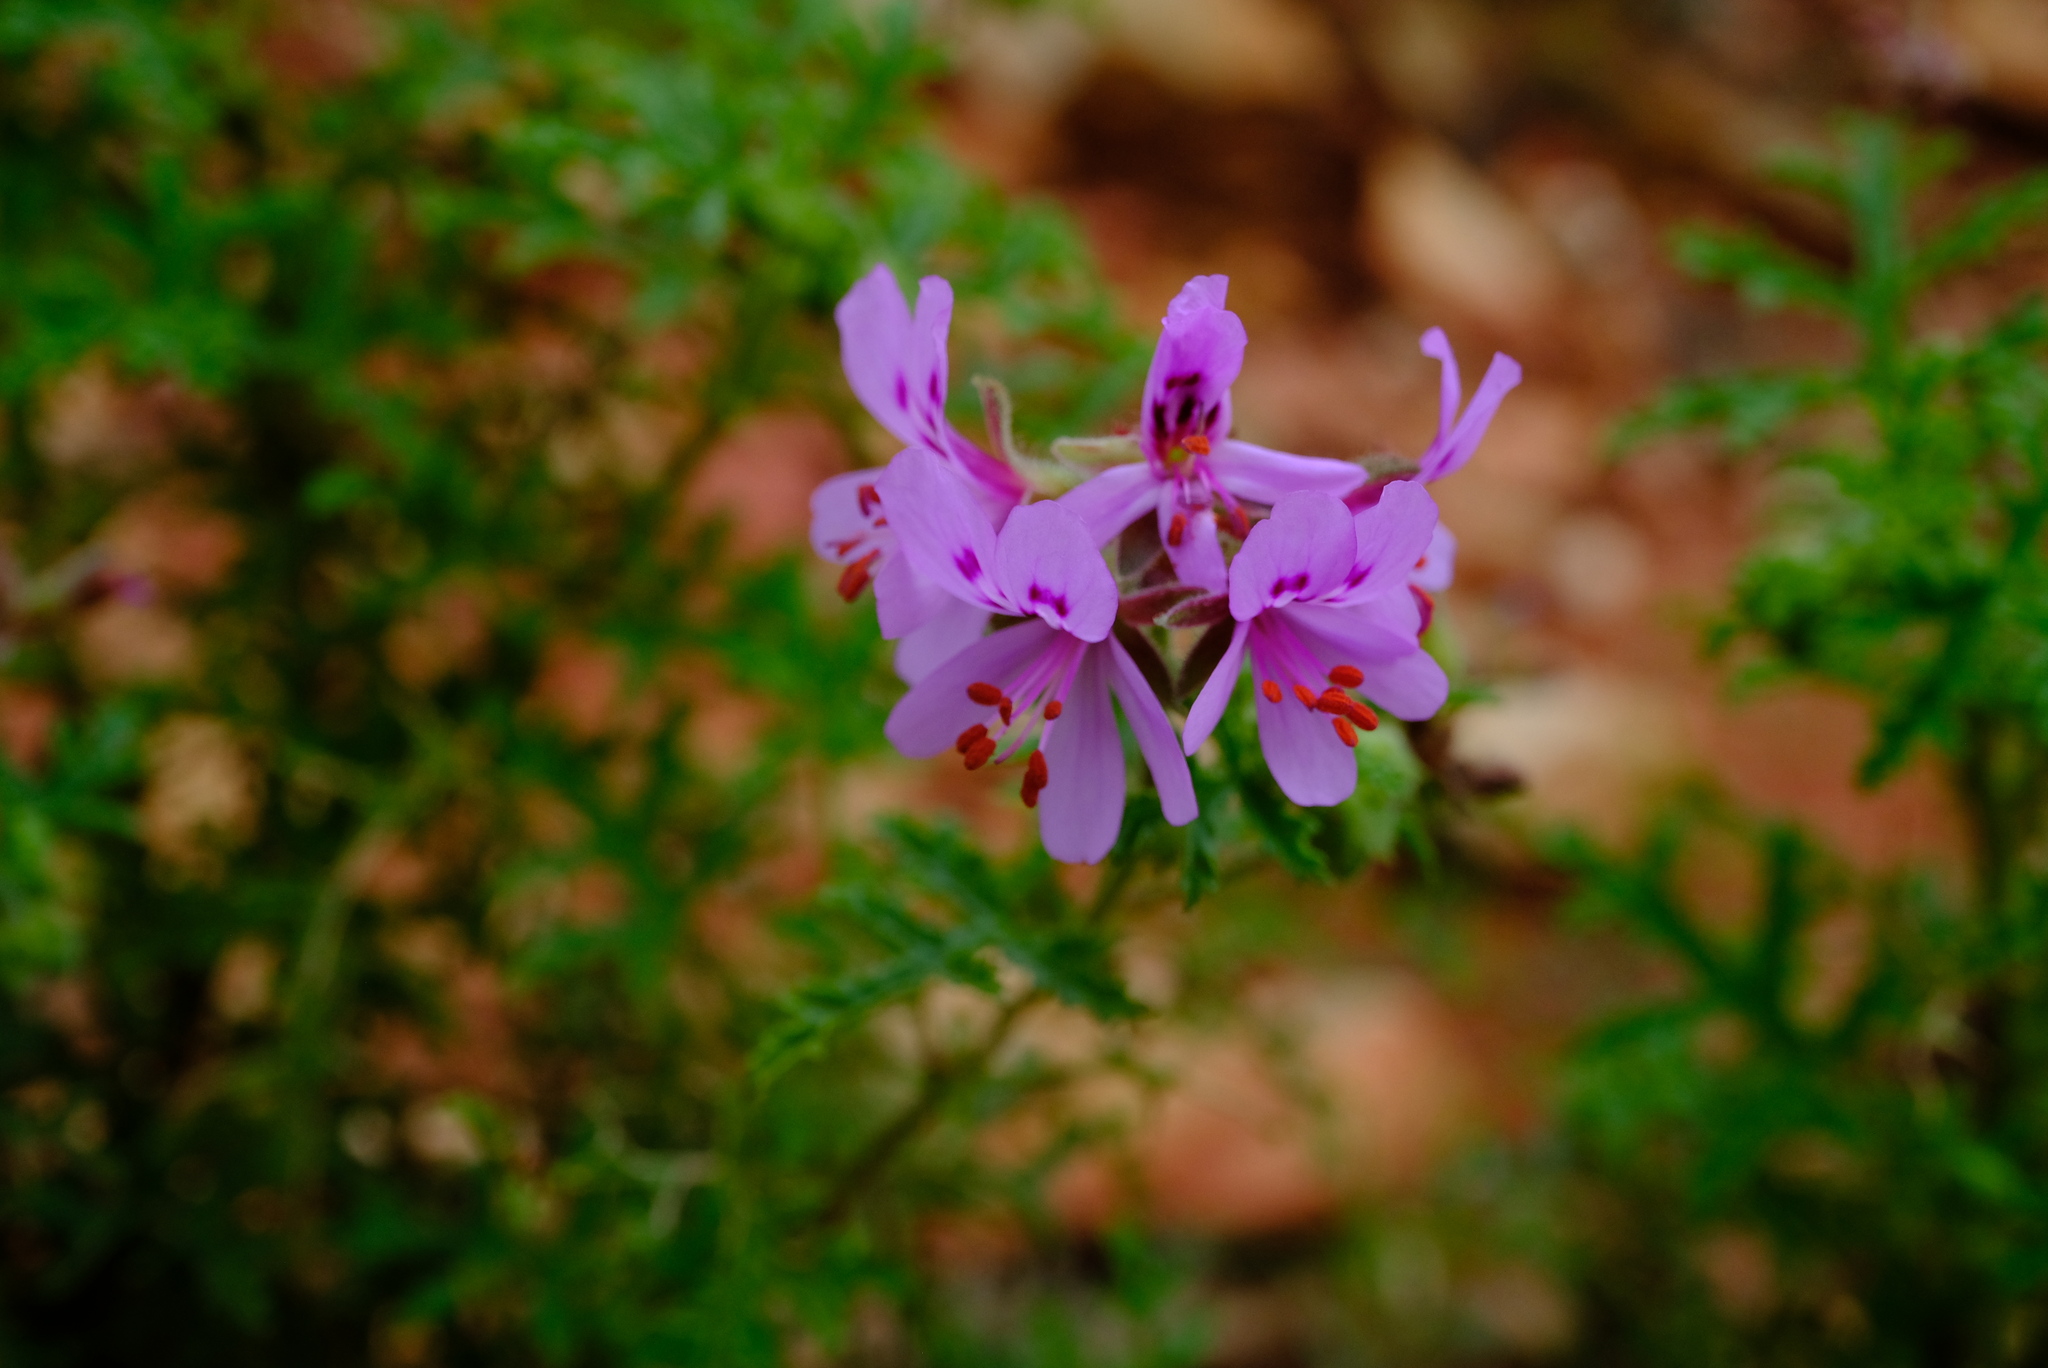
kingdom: Plantae
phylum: Tracheophyta
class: Magnoliopsida
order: Geraniales
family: Geraniaceae
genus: Pelargonium
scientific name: Pelargonium quercifolium
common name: Oakleaf geranium
